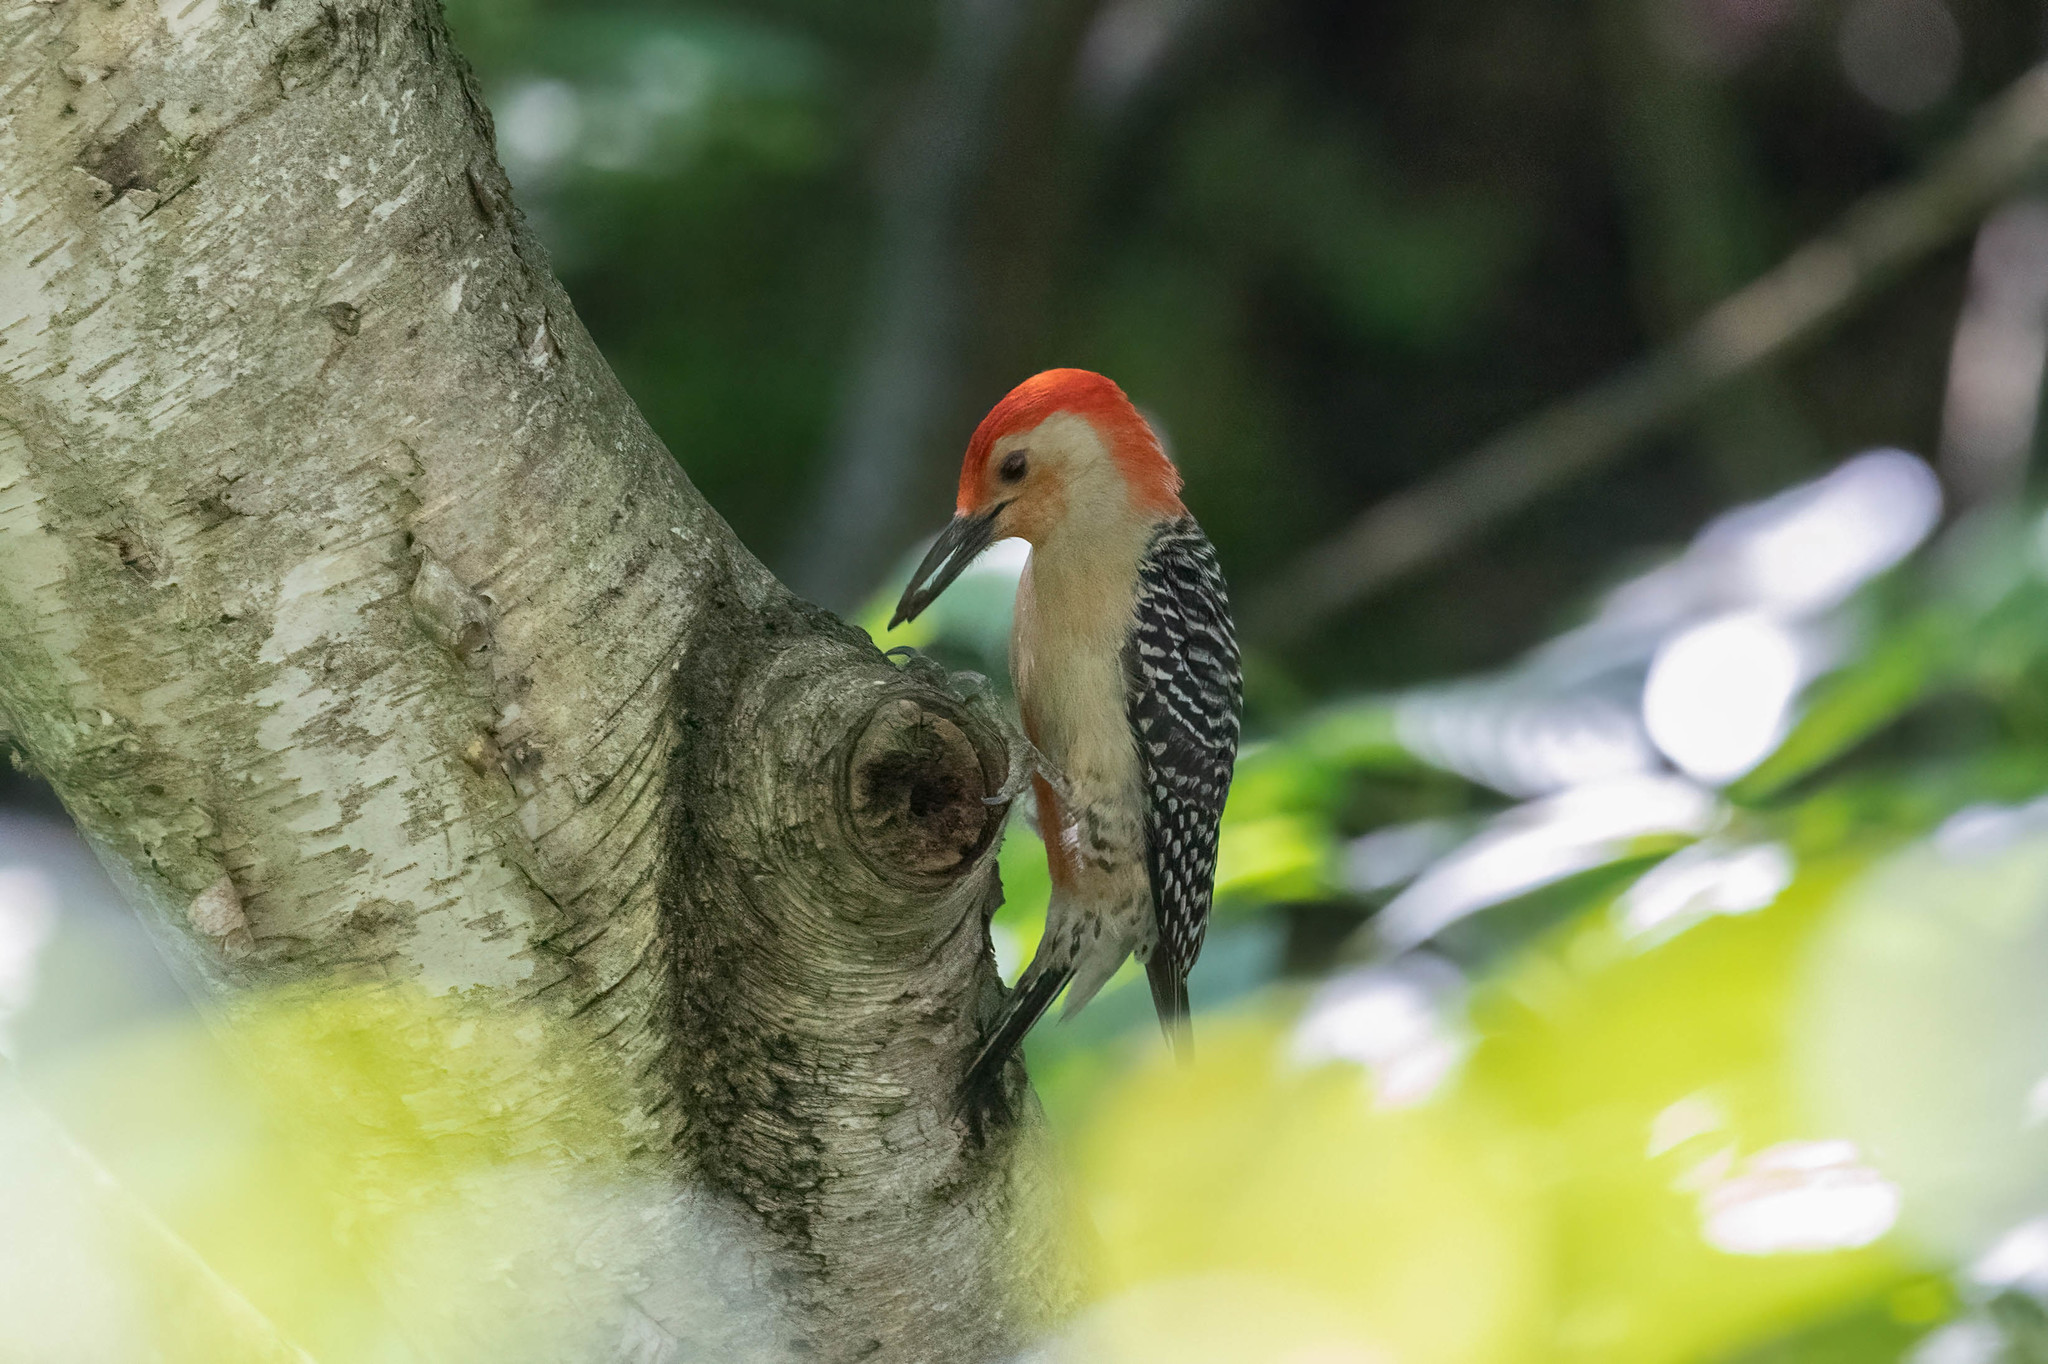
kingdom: Animalia
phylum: Chordata
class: Aves
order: Piciformes
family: Picidae
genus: Melanerpes
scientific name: Melanerpes carolinus
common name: Red-bellied woodpecker
